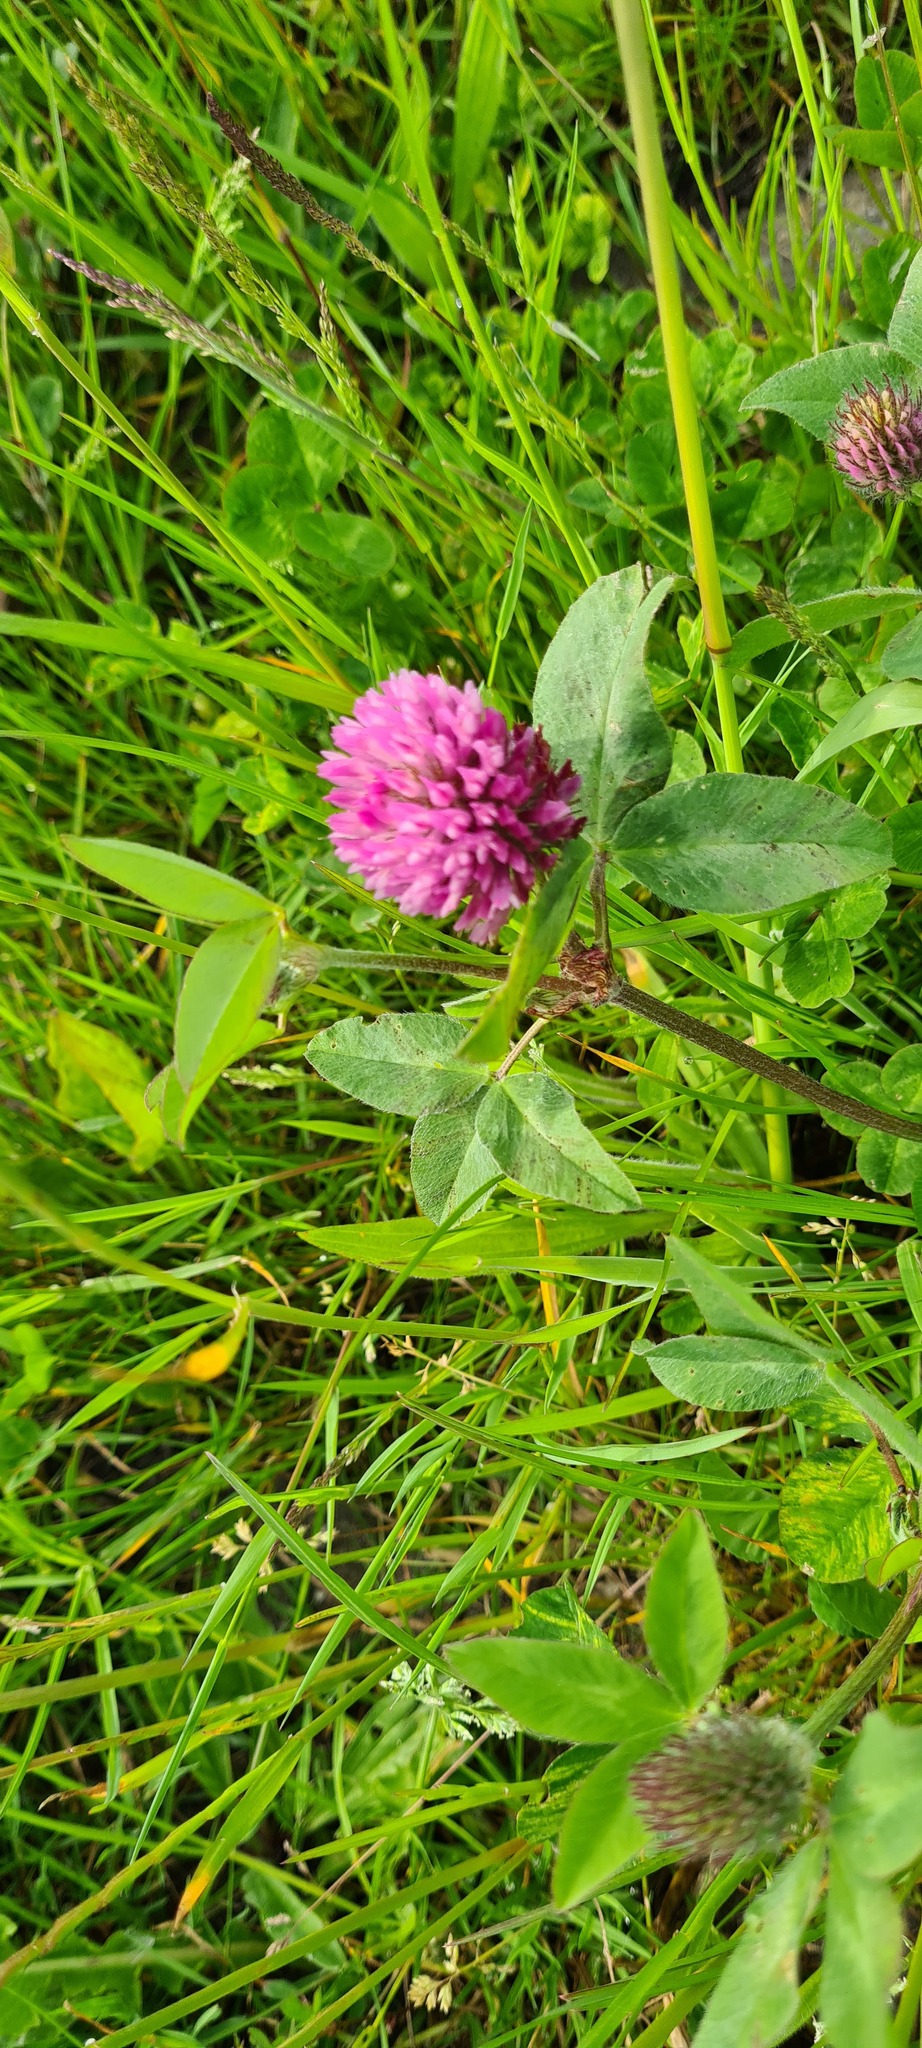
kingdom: Plantae
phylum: Tracheophyta
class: Magnoliopsida
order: Fabales
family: Fabaceae
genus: Trifolium
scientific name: Trifolium pratense
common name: Red clover
